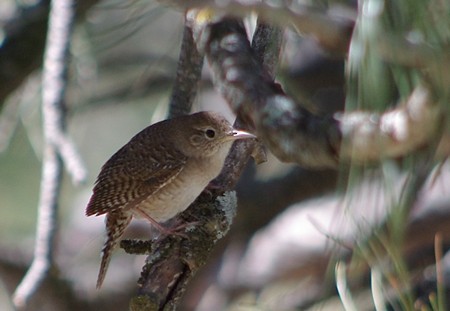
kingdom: Animalia
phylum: Chordata
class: Aves
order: Passeriformes
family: Troglodytidae
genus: Troglodytes
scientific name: Troglodytes aedon
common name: House wren
